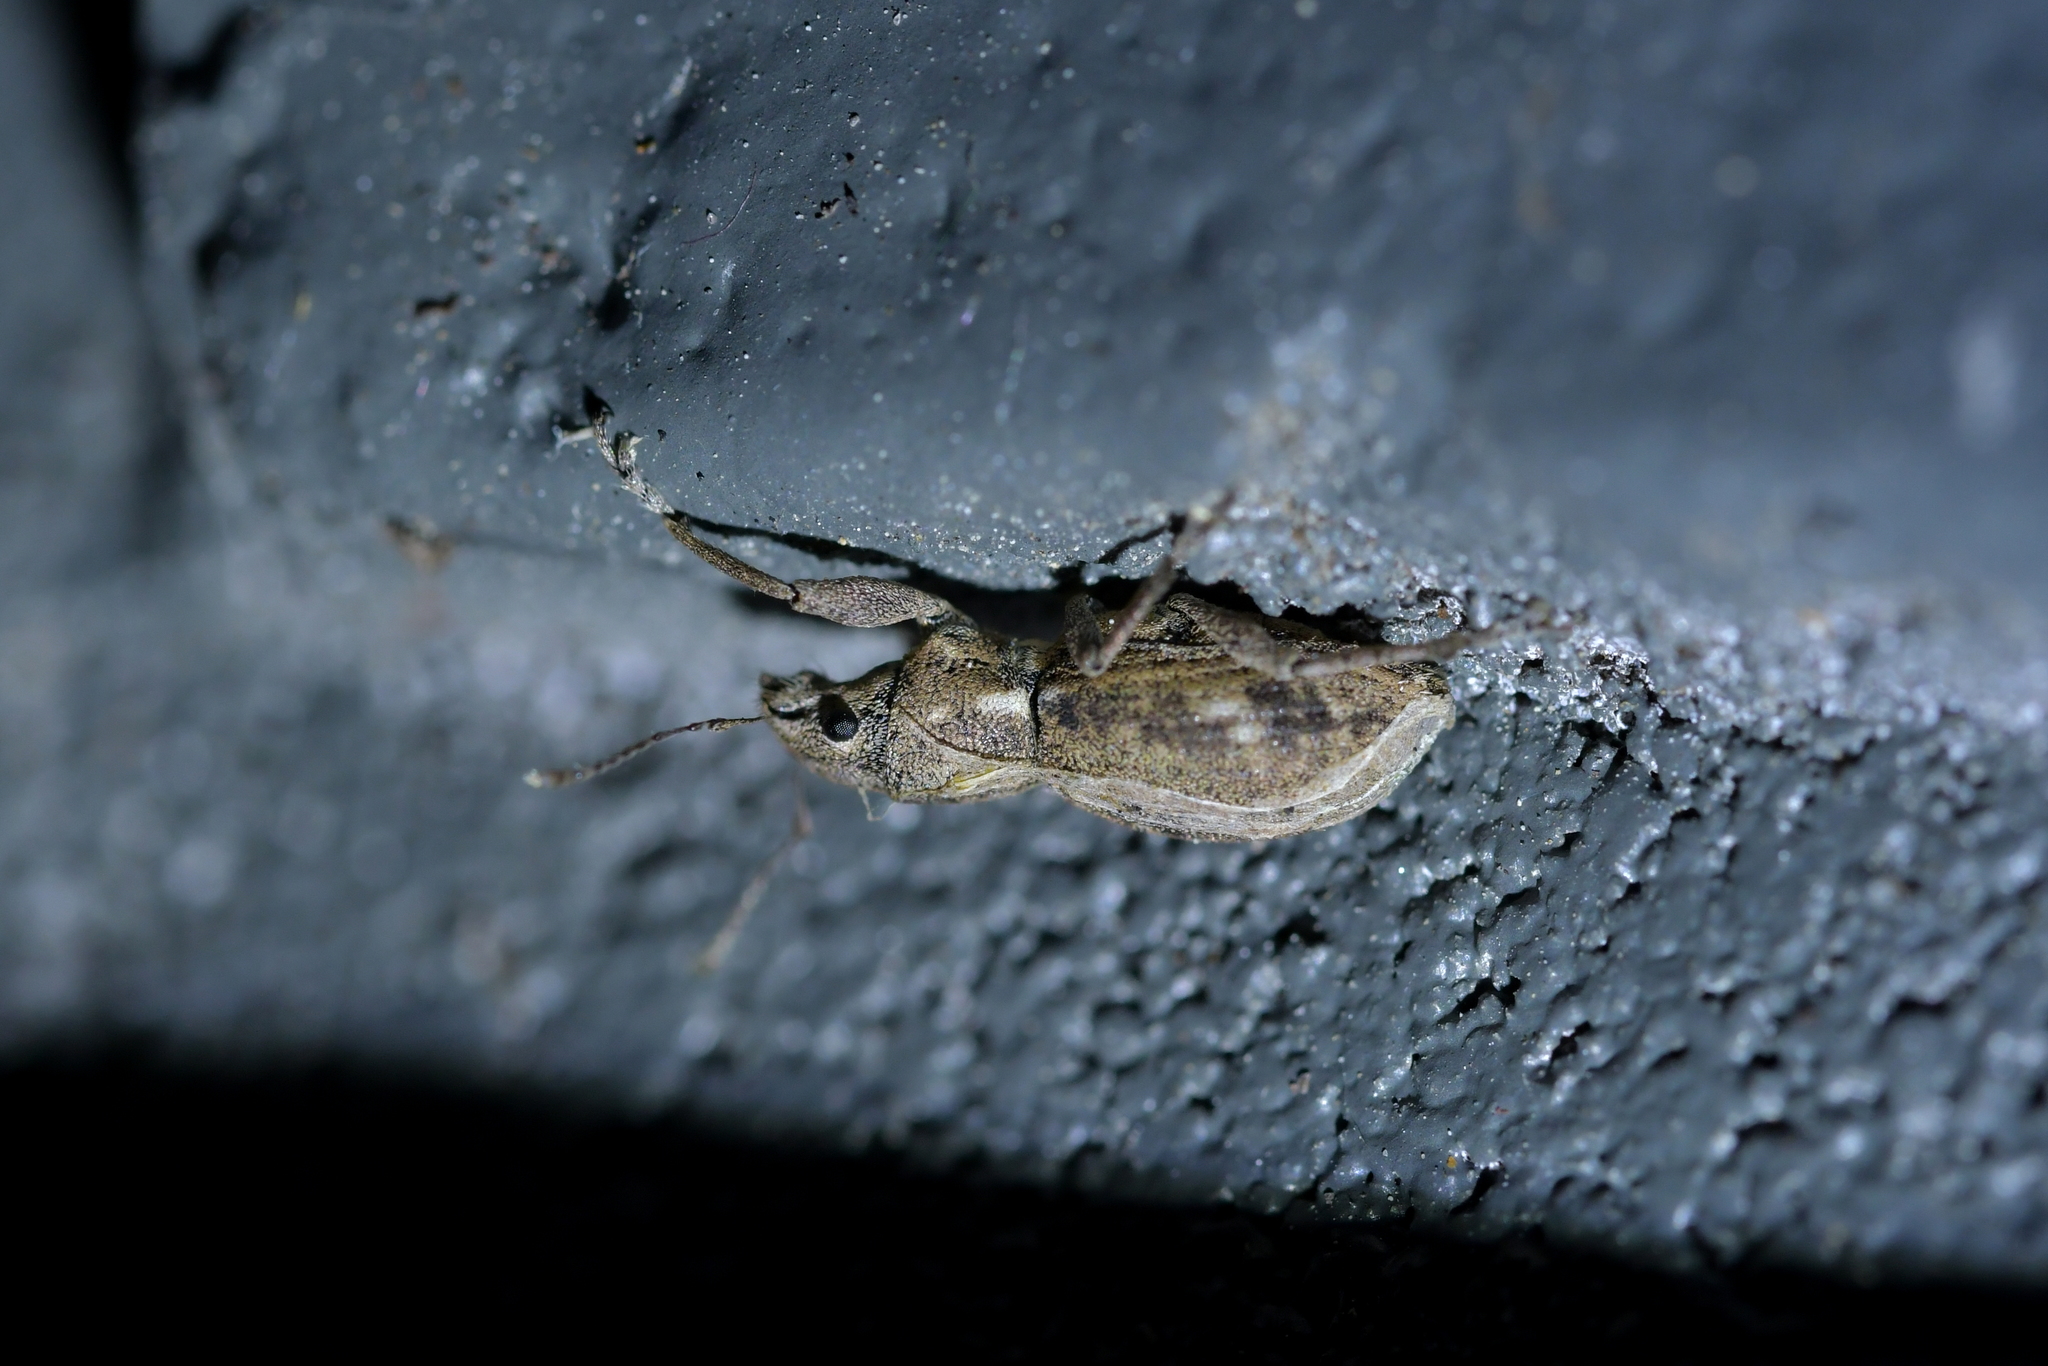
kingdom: Animalia
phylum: Arthropoda
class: Insecta
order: Coleoptera
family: Curculionidae
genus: Naupactus
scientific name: Naupactus cervinus
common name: Fuller rose beetle
